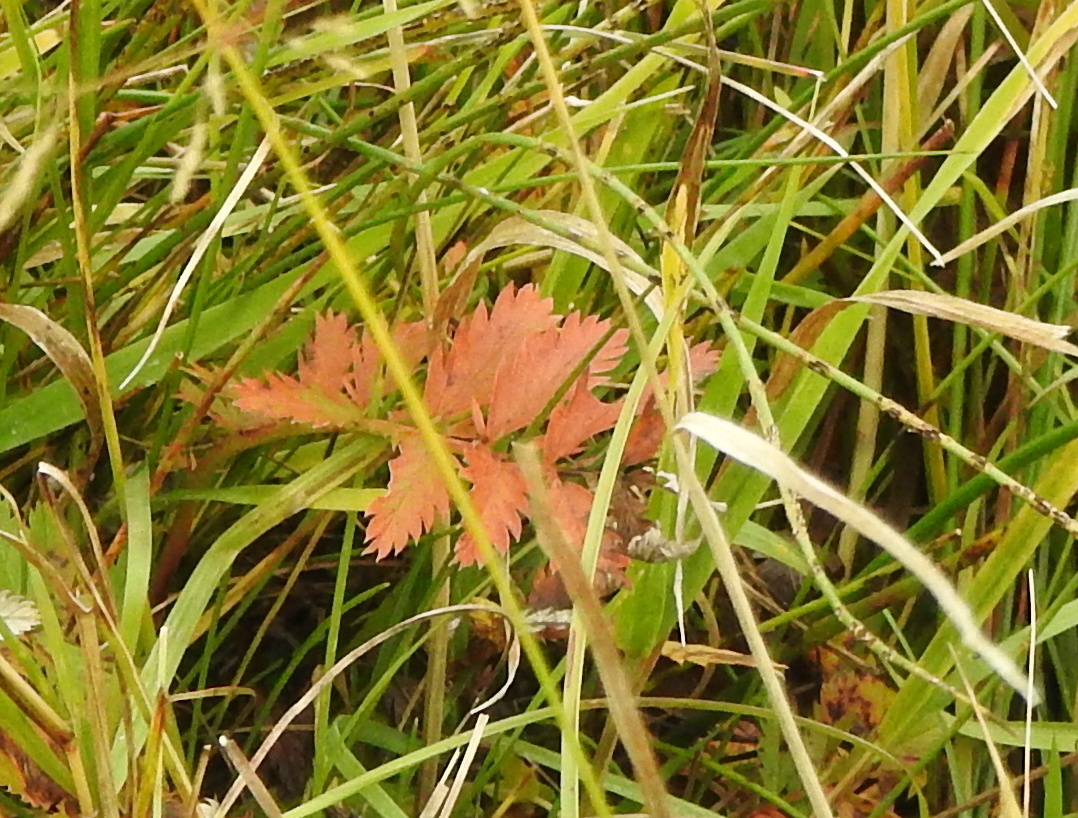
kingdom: Plantae
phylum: Tracheophyta
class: Magnoliopsida
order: Apiales
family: Apiaceae
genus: Pimpinella
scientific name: Pimpinella saxifraga
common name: Burnet-saxifrage
